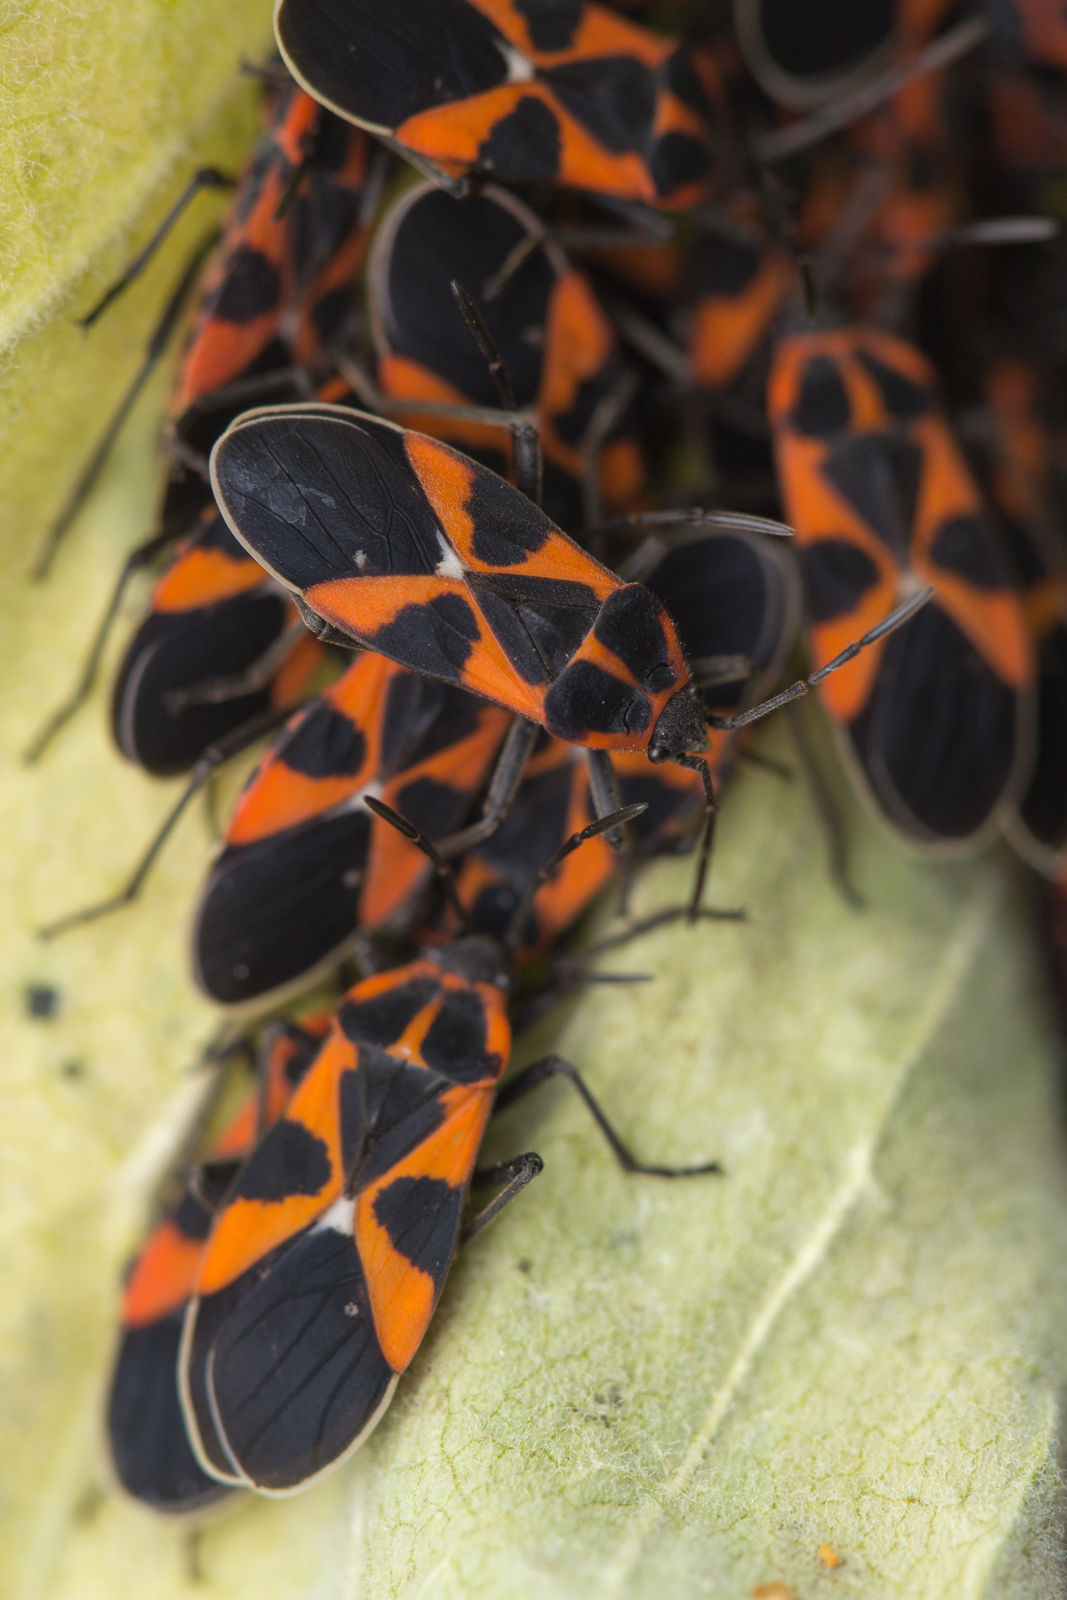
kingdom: Animalia
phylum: Arthropoda
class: Insecta
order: Hemiptera
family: Lygaeidae
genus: Tropidothorax
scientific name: Tropidothorax leucopterus
